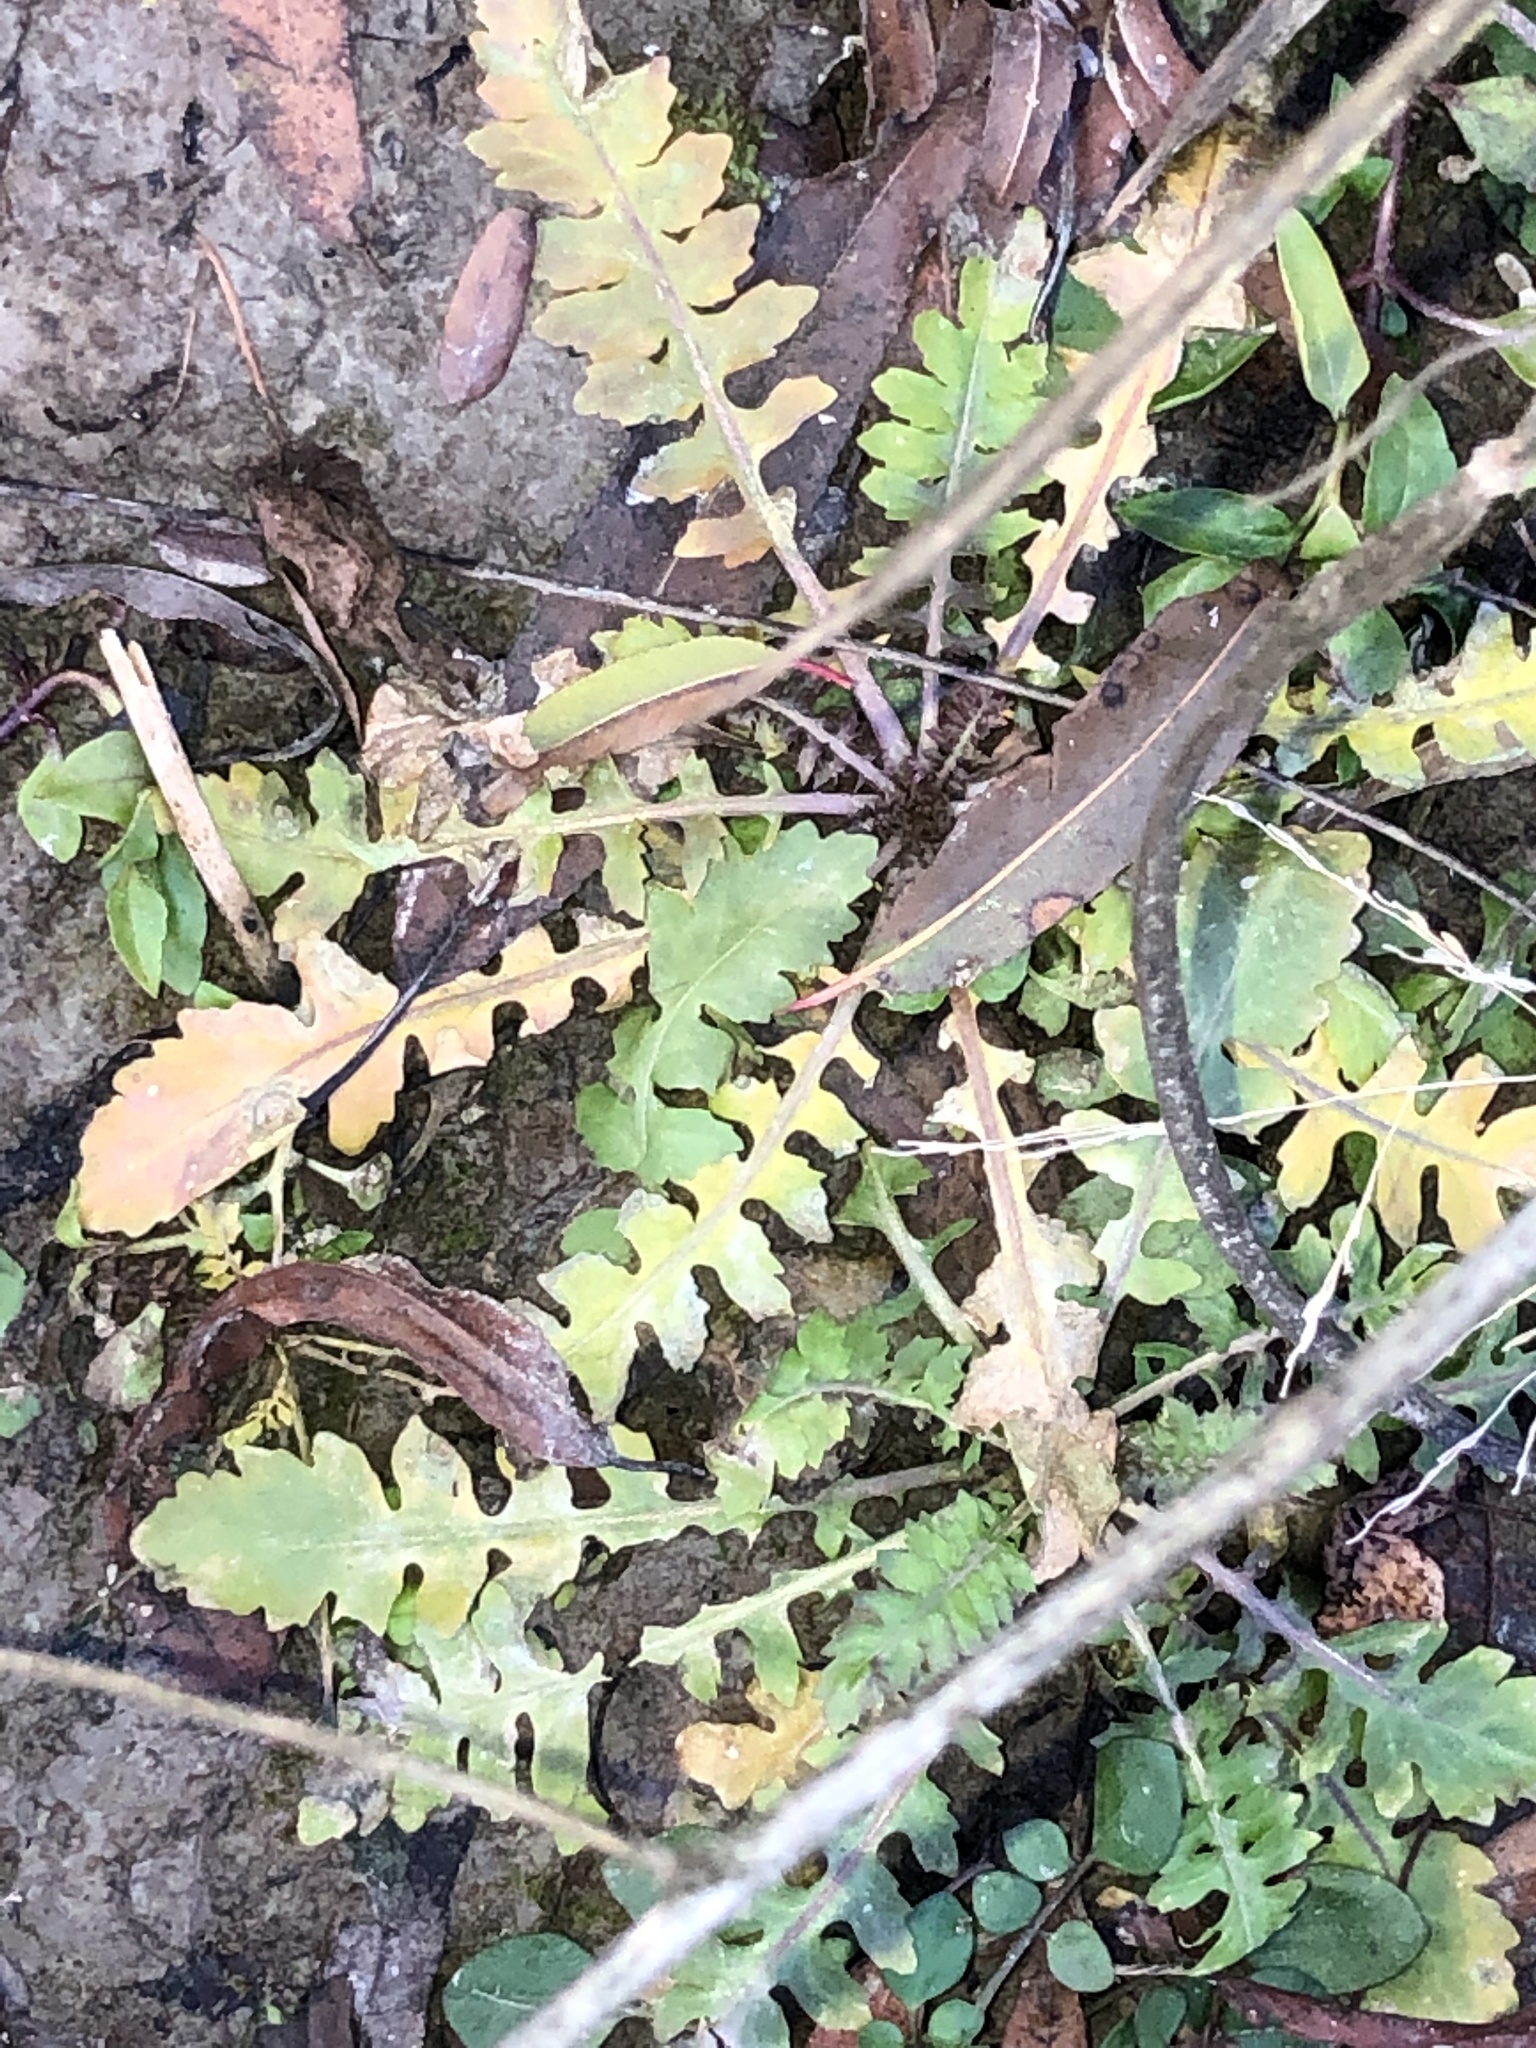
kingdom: Plantae
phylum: Tracheophyta
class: Magnoliopsida
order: Brassicales
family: Brassicaceae
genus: Rorippa
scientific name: Rorippa teres
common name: Southern marsh yellowcress
